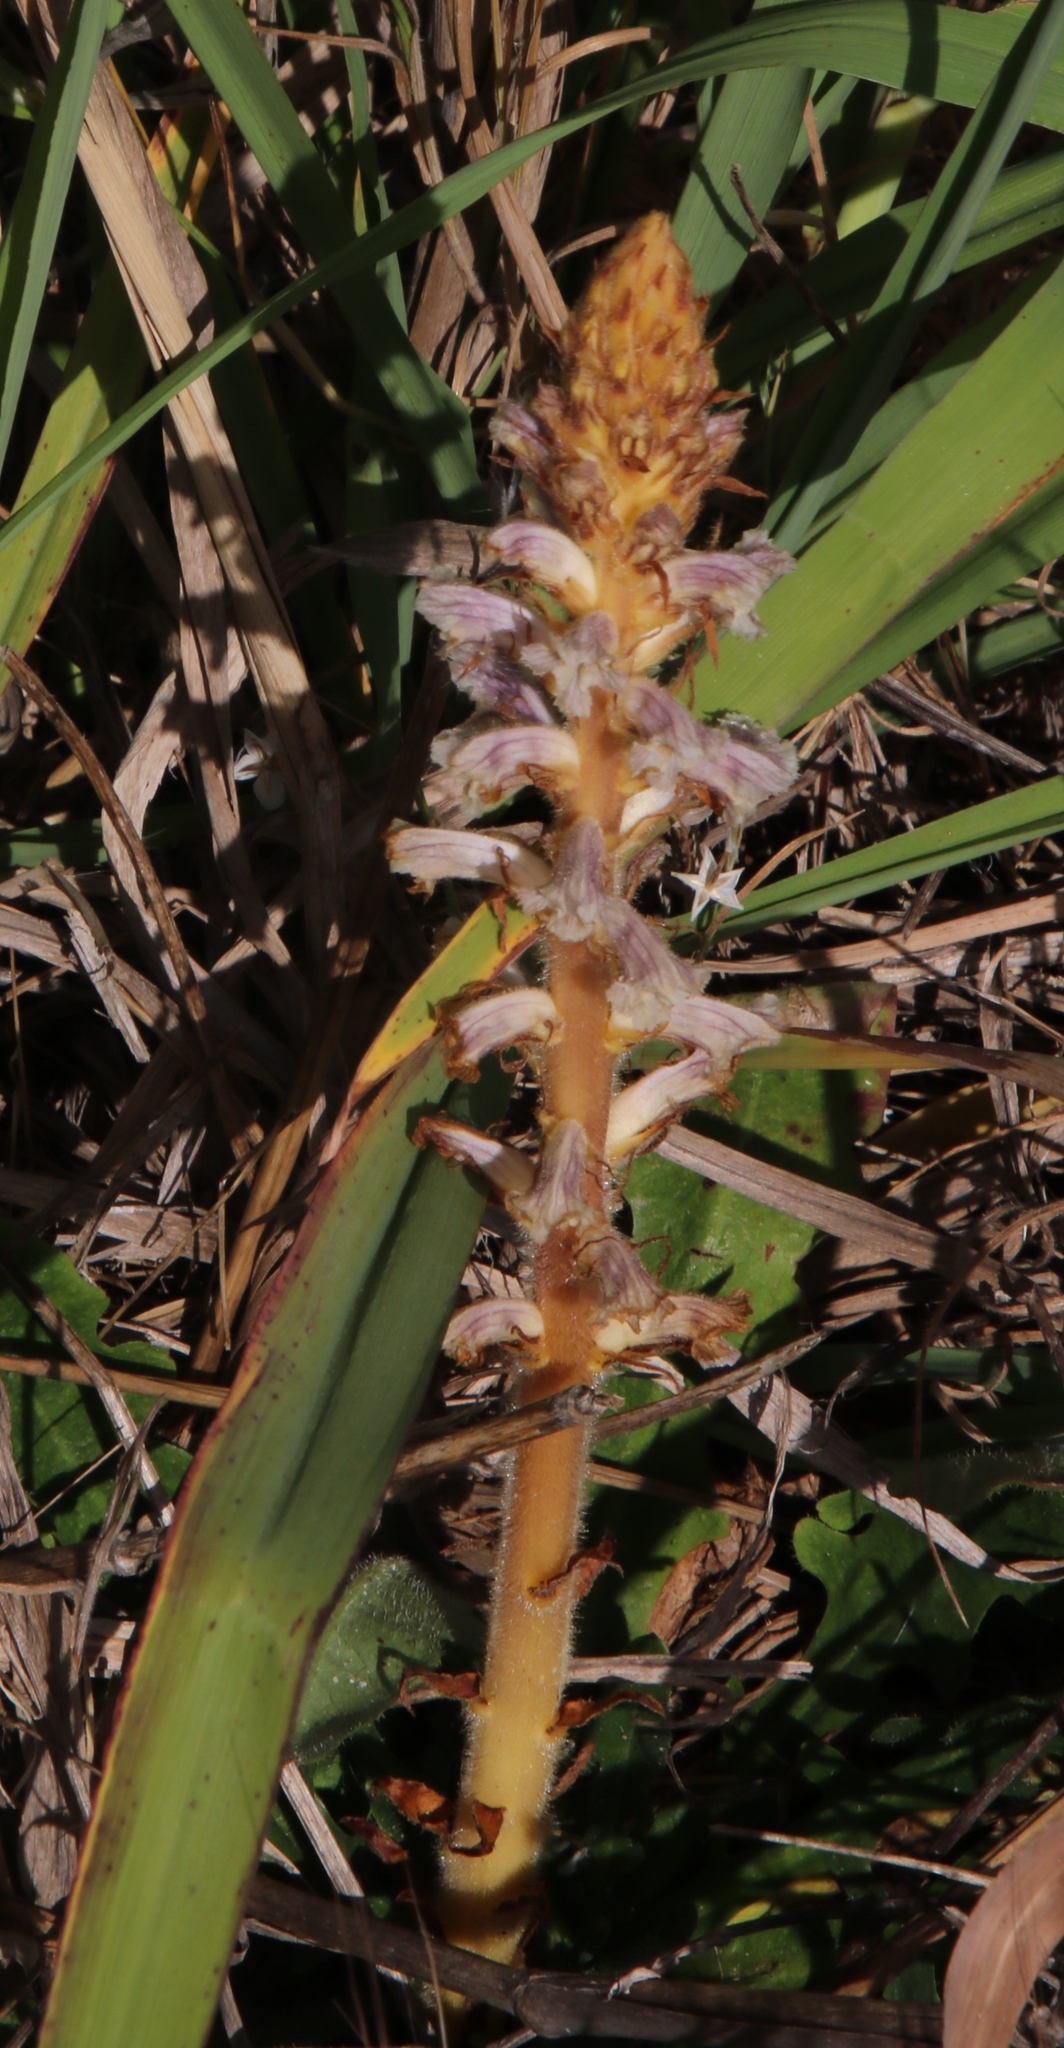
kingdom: Plantae
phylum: Tracheophyta
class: Magnoliopsida
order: Lamiales
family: Orobanchaceae
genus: Orobanche
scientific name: Orobanche minor
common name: Common broomrape
